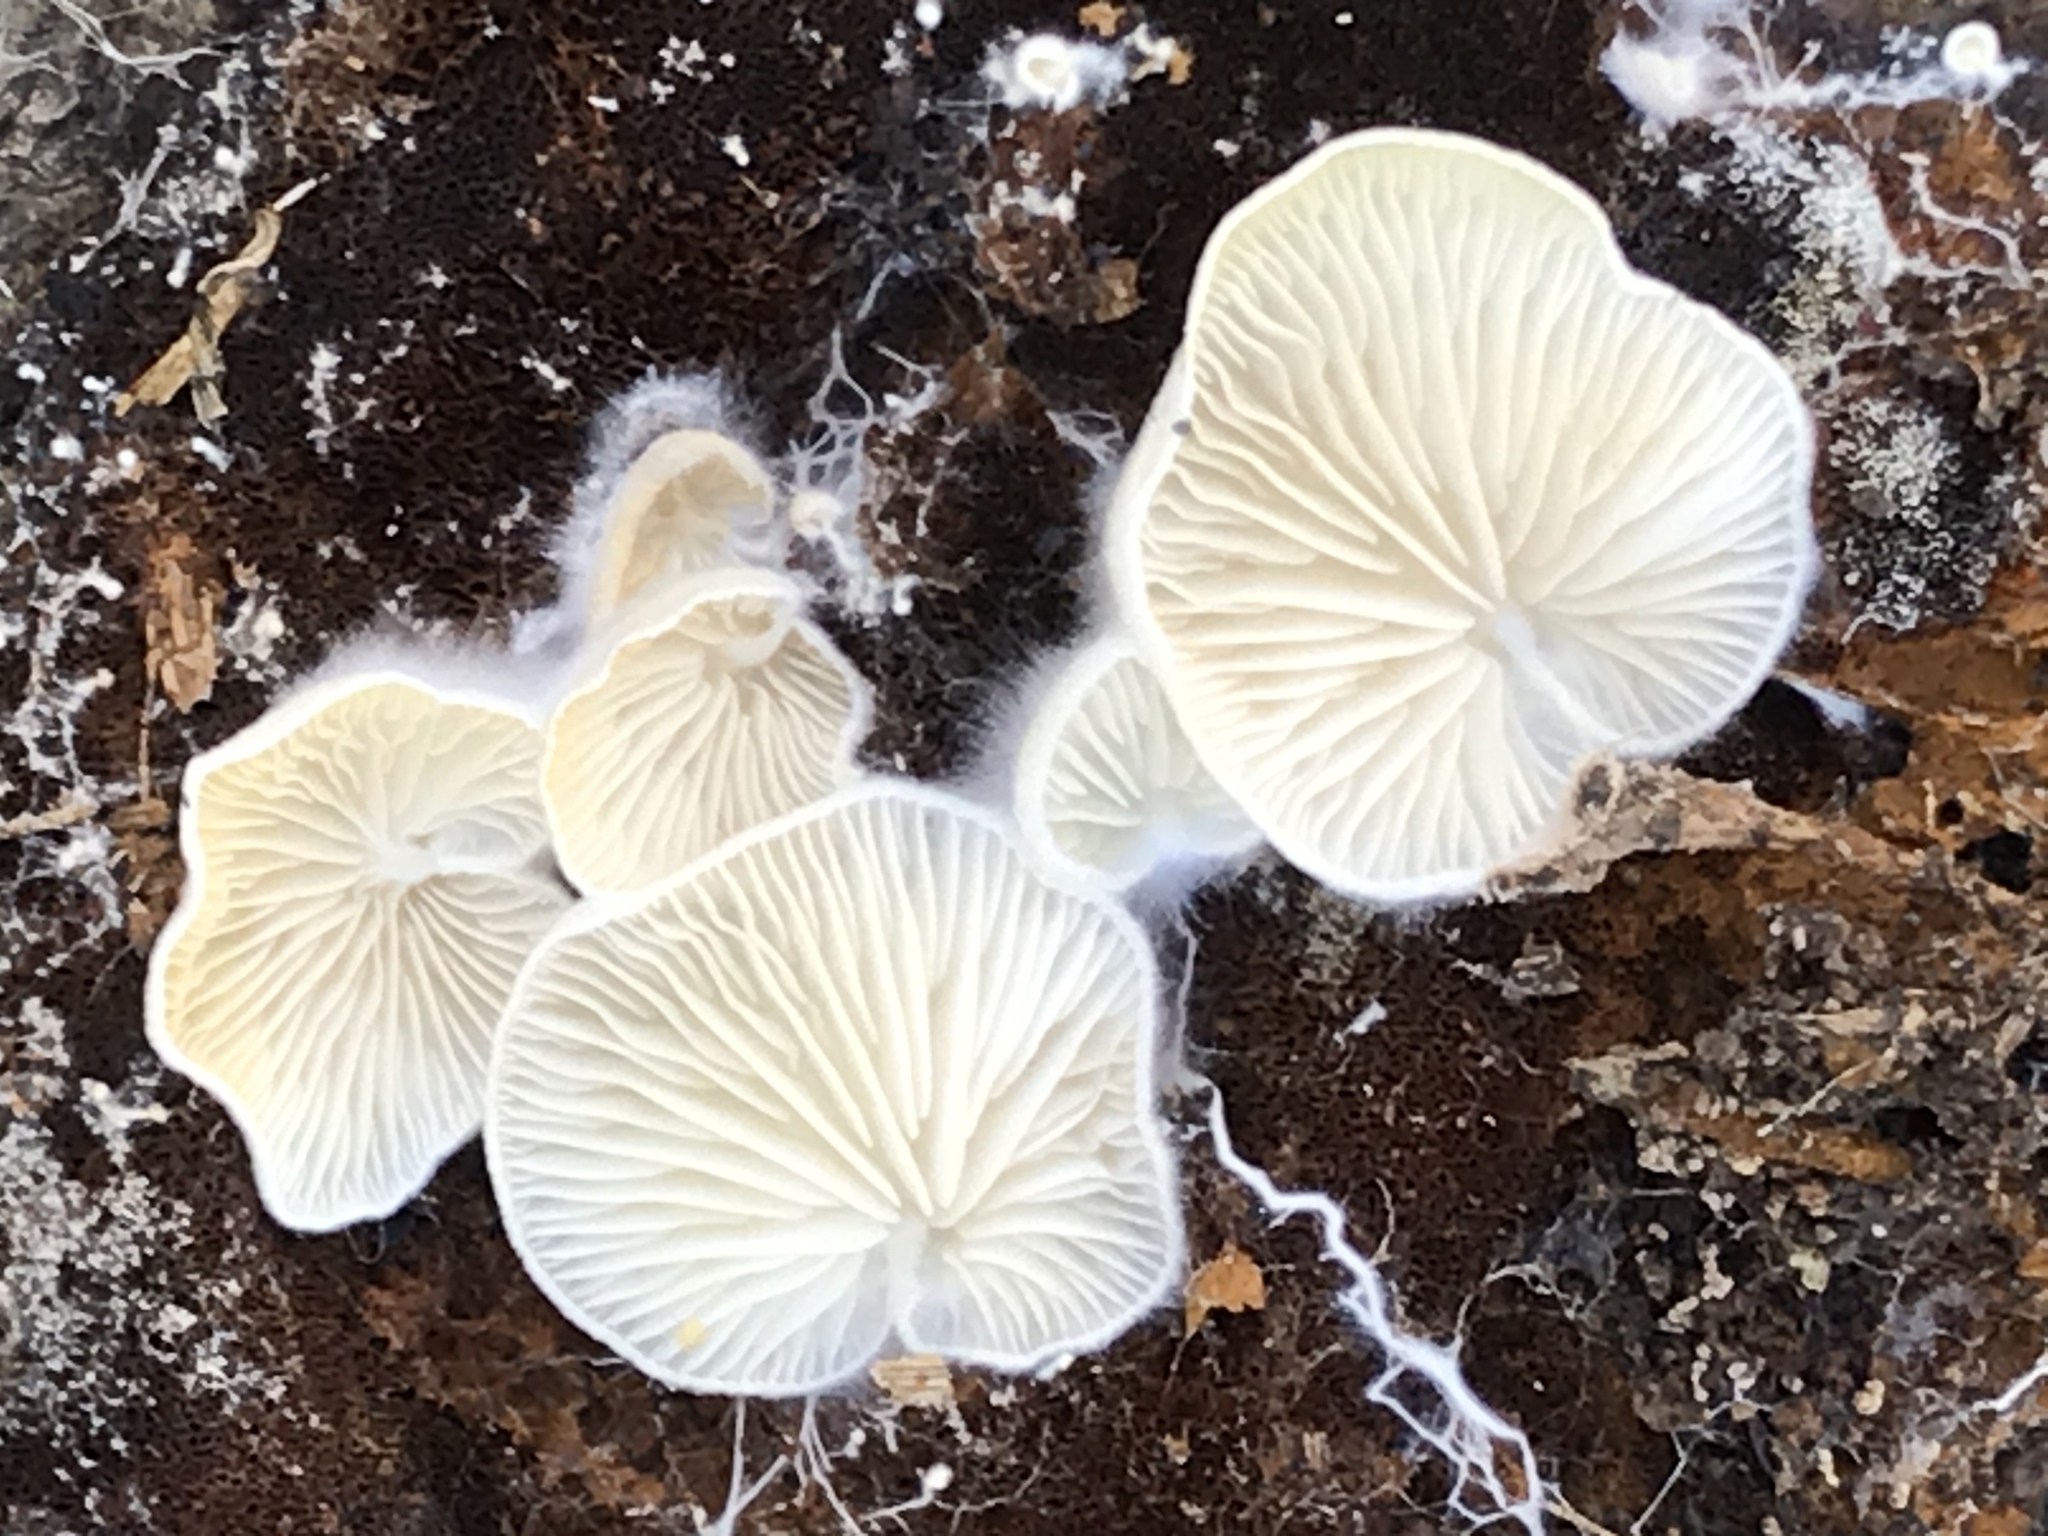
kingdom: Fungi
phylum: Basidiomycota
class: Agaricomycetes
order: Agaricales
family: Entolomataceae
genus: Clitopilus
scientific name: Clitopilus hobsonii
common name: Miller's oysterling
